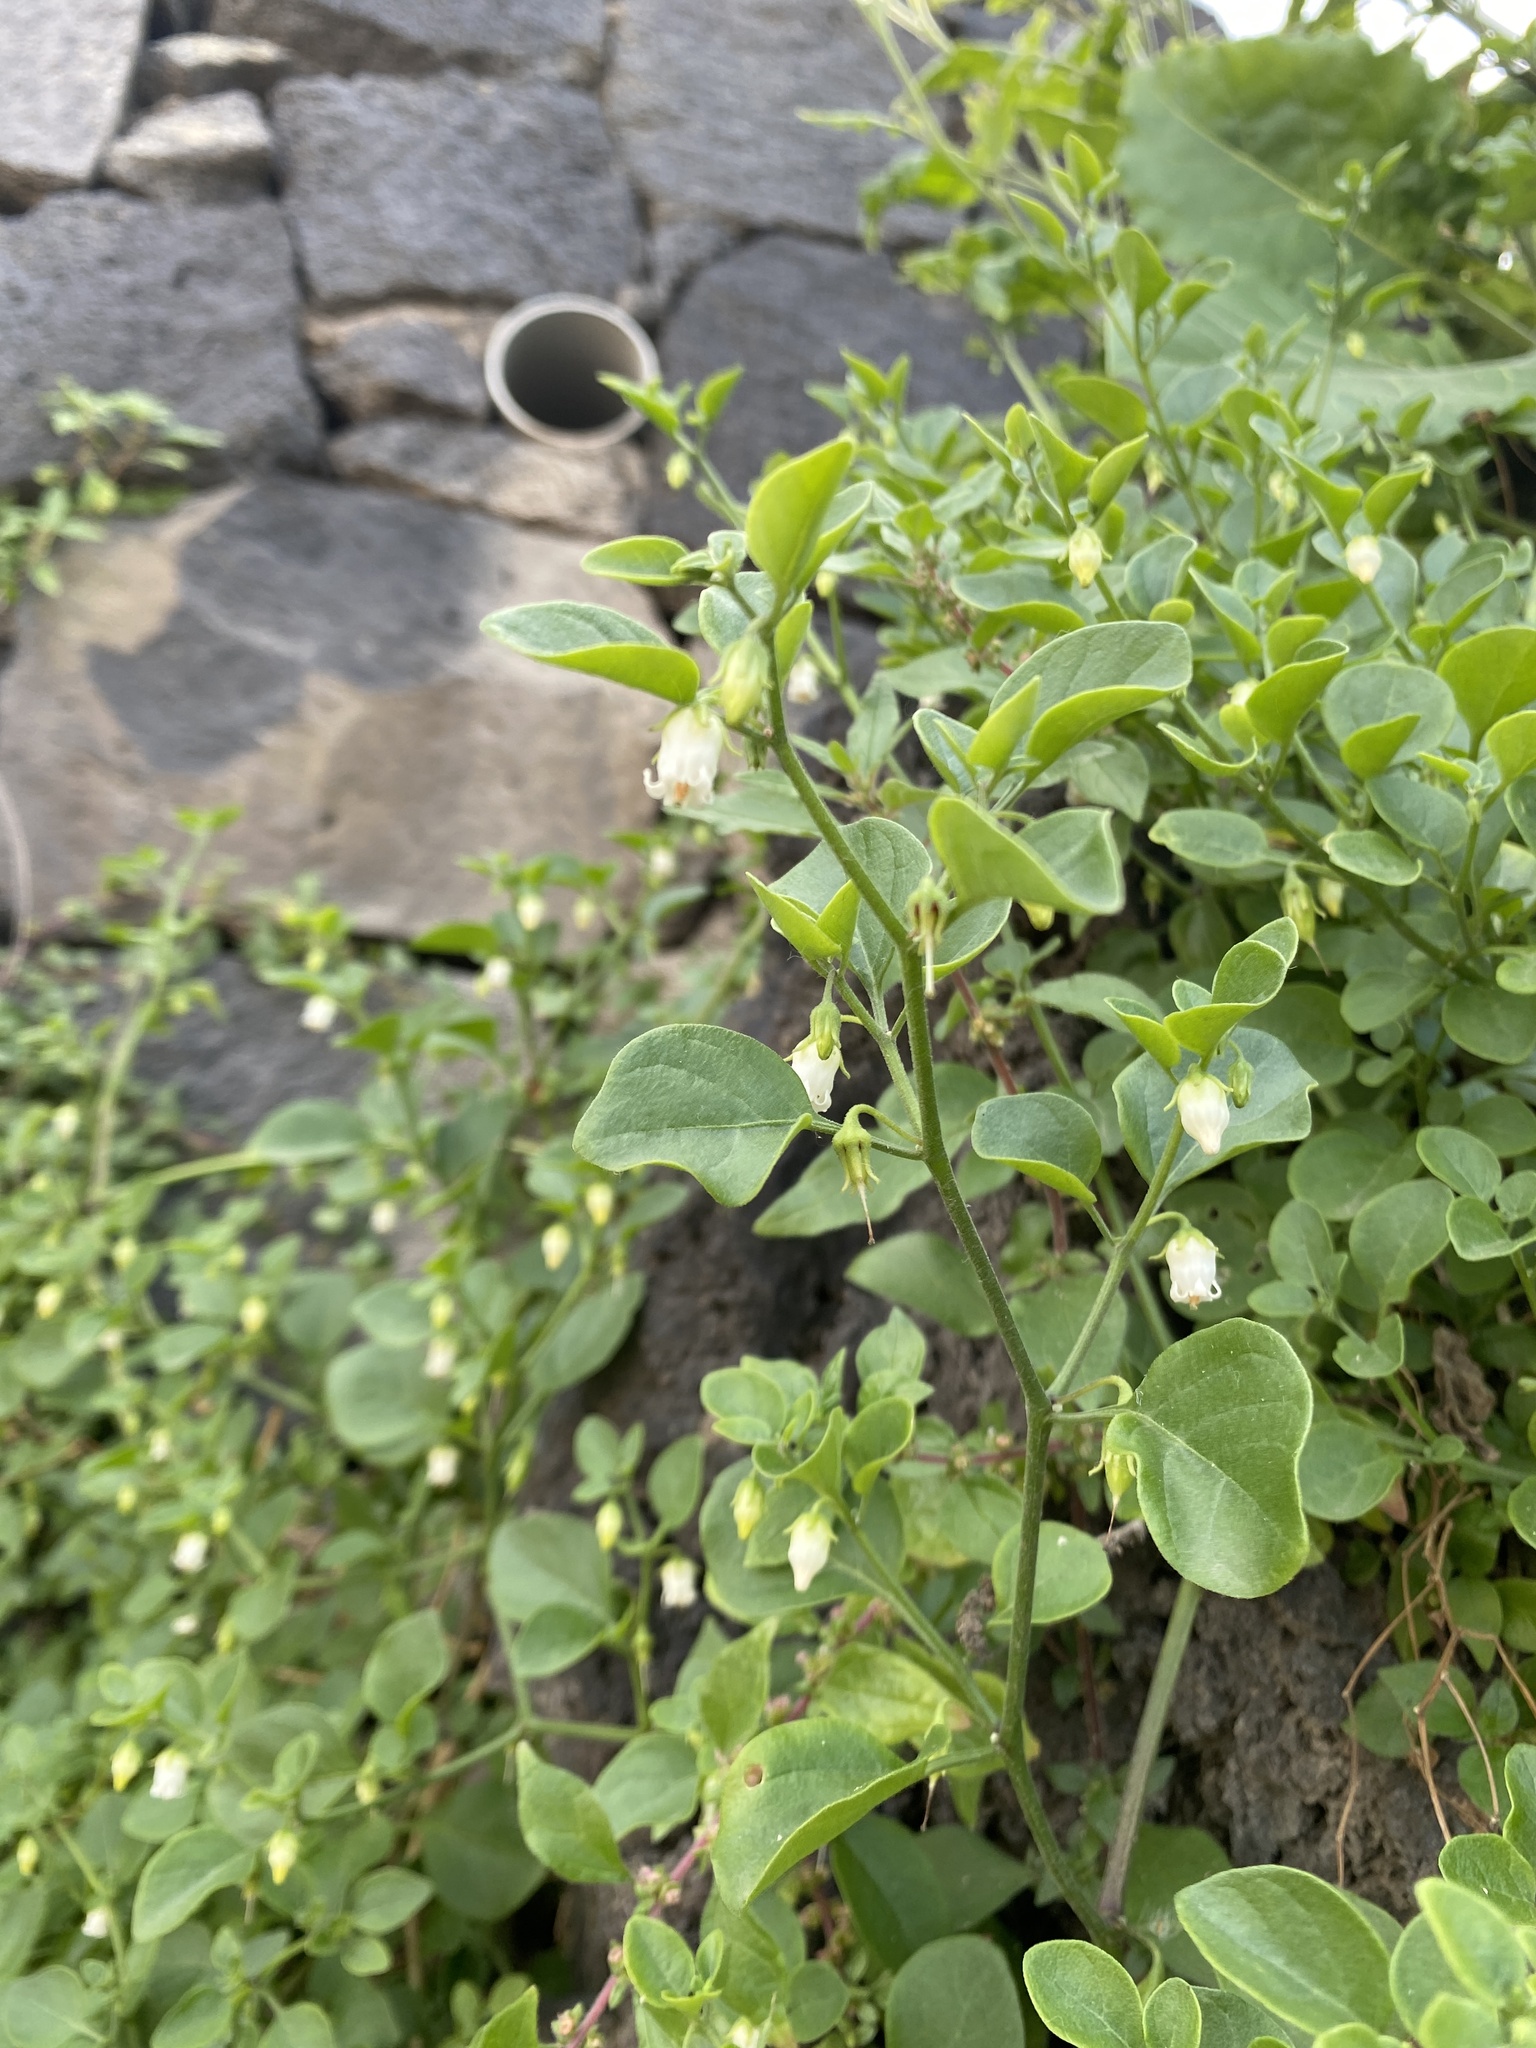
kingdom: Plantae
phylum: Tracheophyta
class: Magnoliopsida
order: Solanales
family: Solanaceae
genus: Salpichroa
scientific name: Salpichroa origanifolia
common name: Lily-of-the-valley-vine
